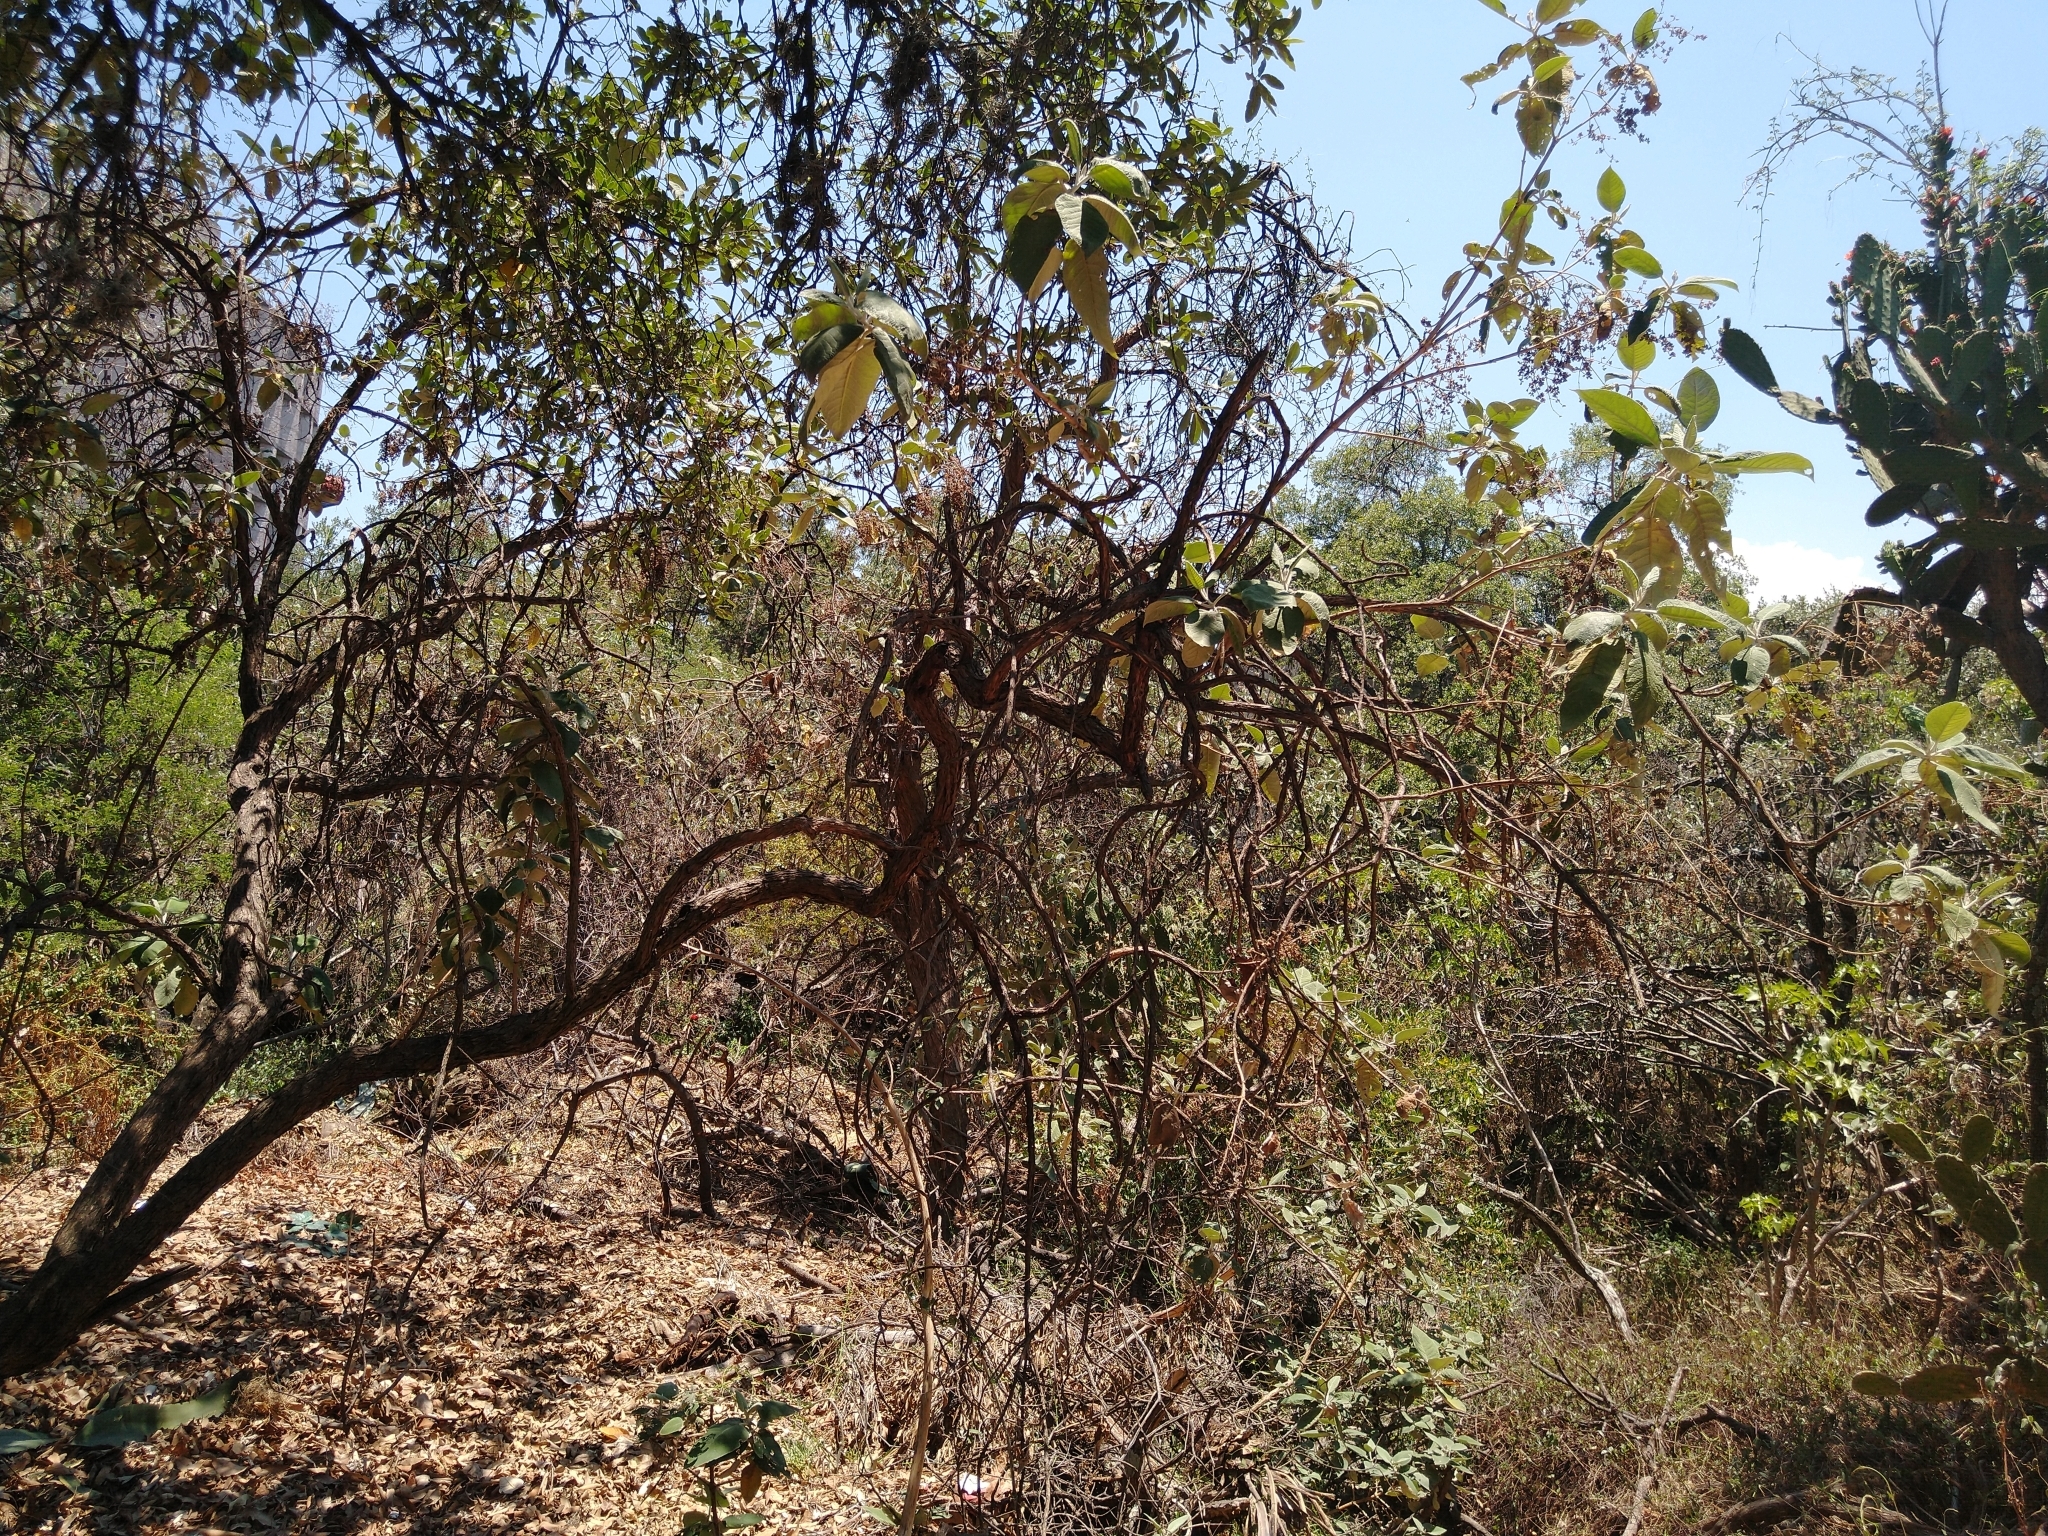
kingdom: Plantae
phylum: Tracheophyta
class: Magnoliopsida
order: Lamiales
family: Scrophulariaceae
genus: Buddleja
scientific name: Buddleja cordata
